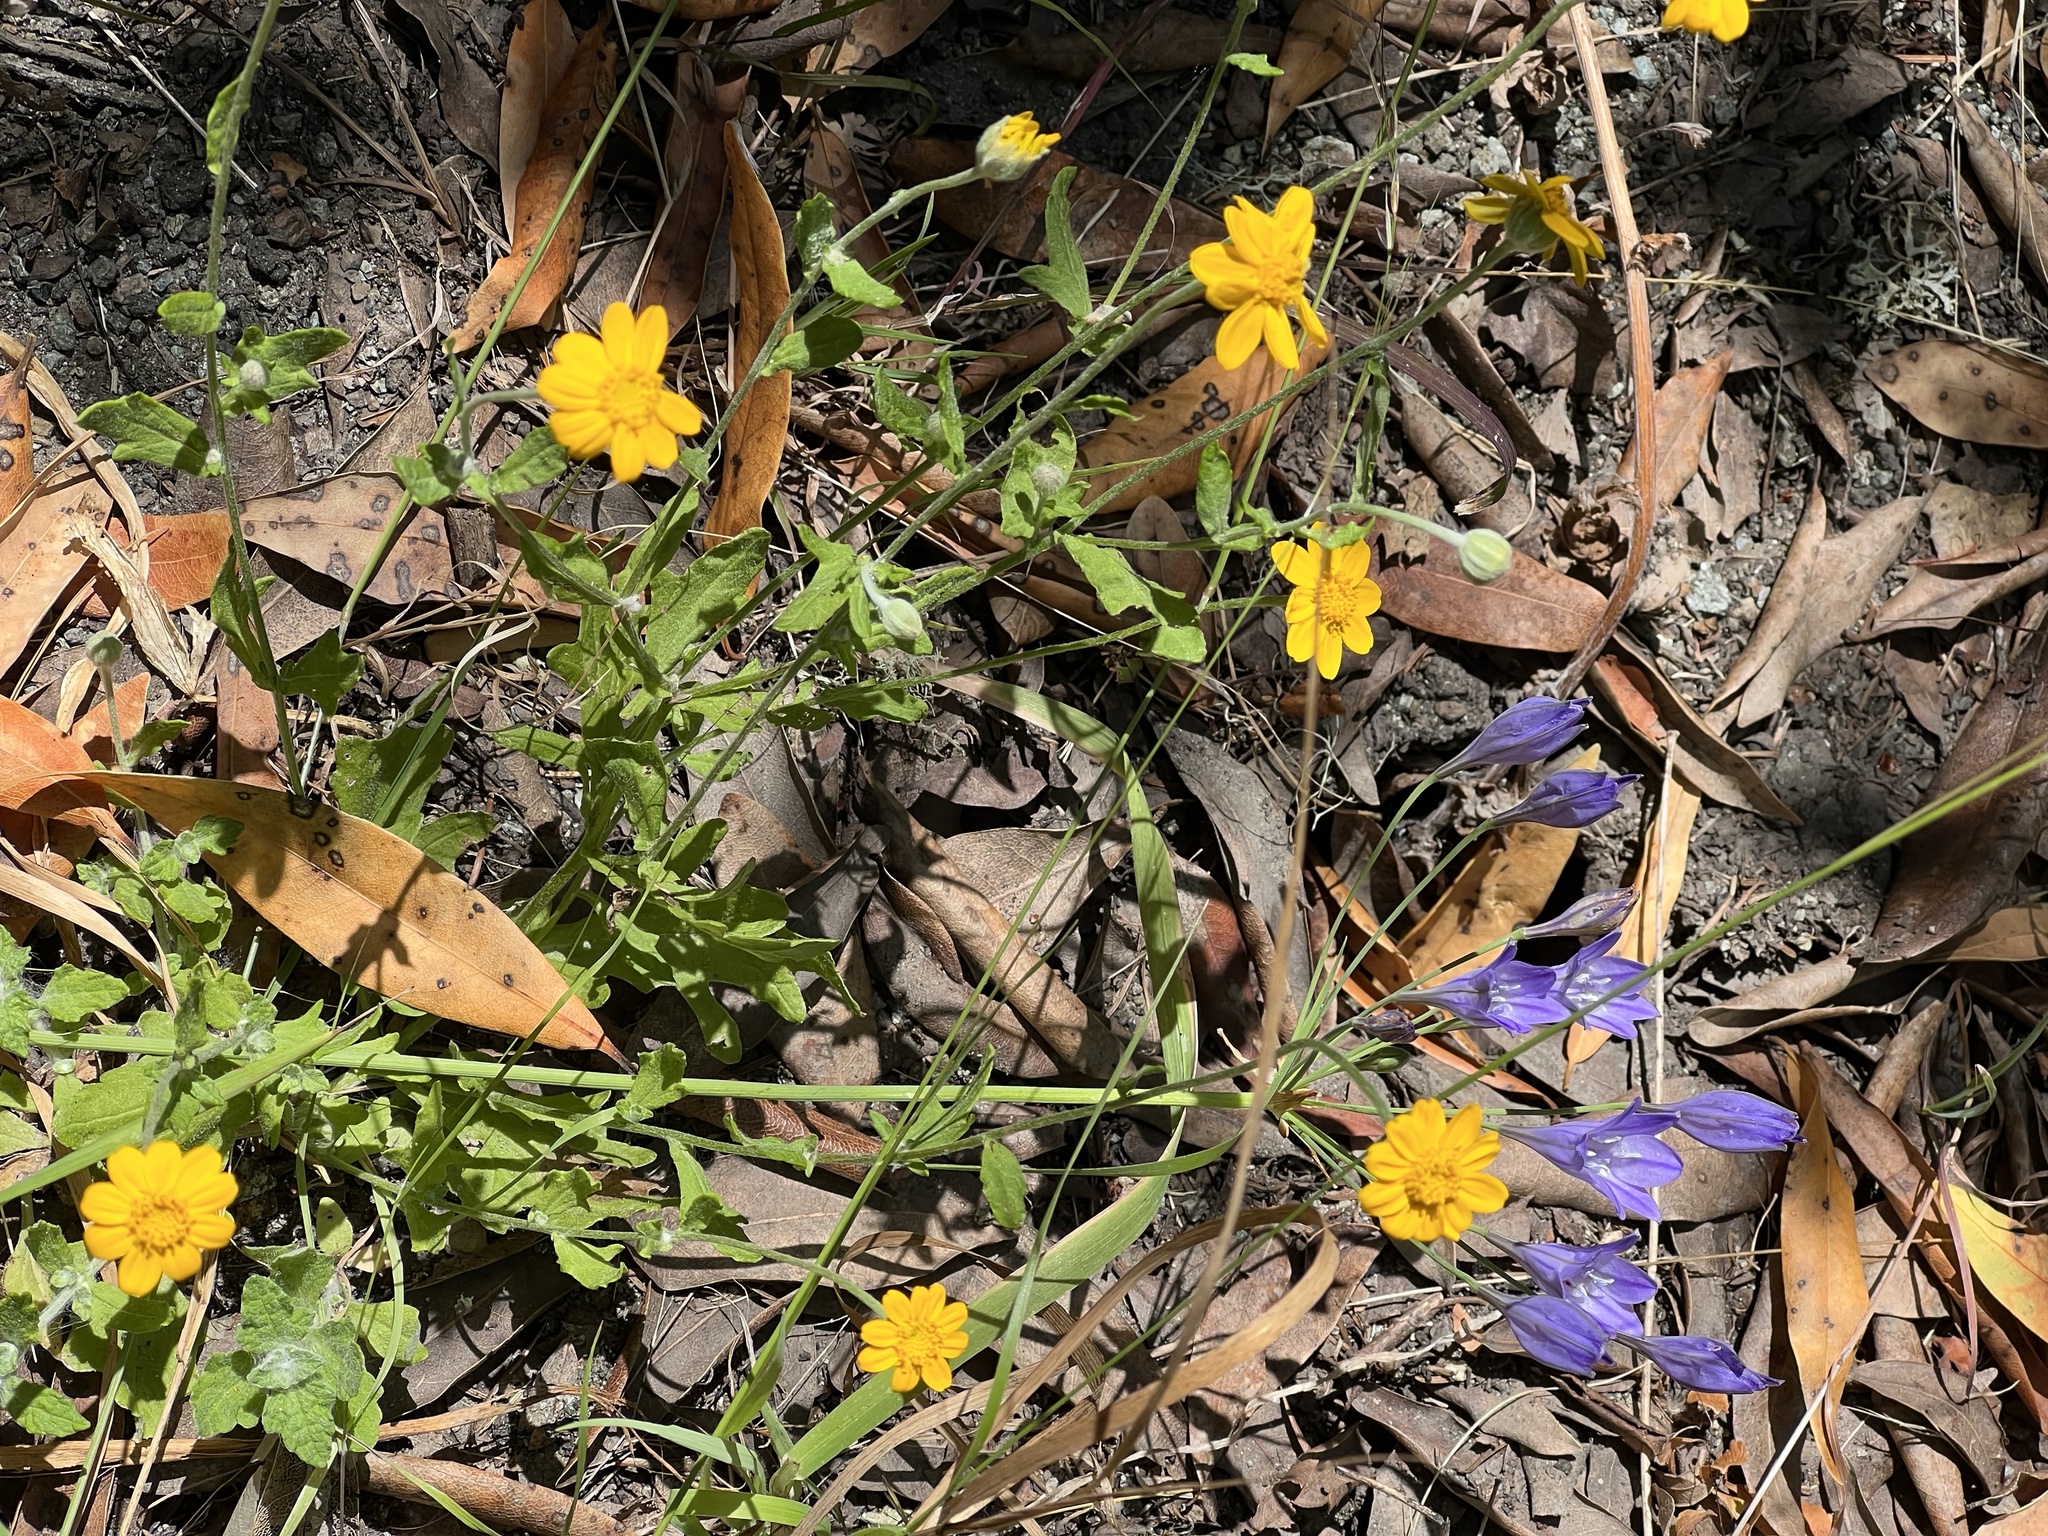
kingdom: Plantae
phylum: Tracheophyta
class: Magnoliopsida
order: Asterales
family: Asteraceae
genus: Eriophyllum
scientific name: Eriophyllum lanatum
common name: Common woolly-sunflower
